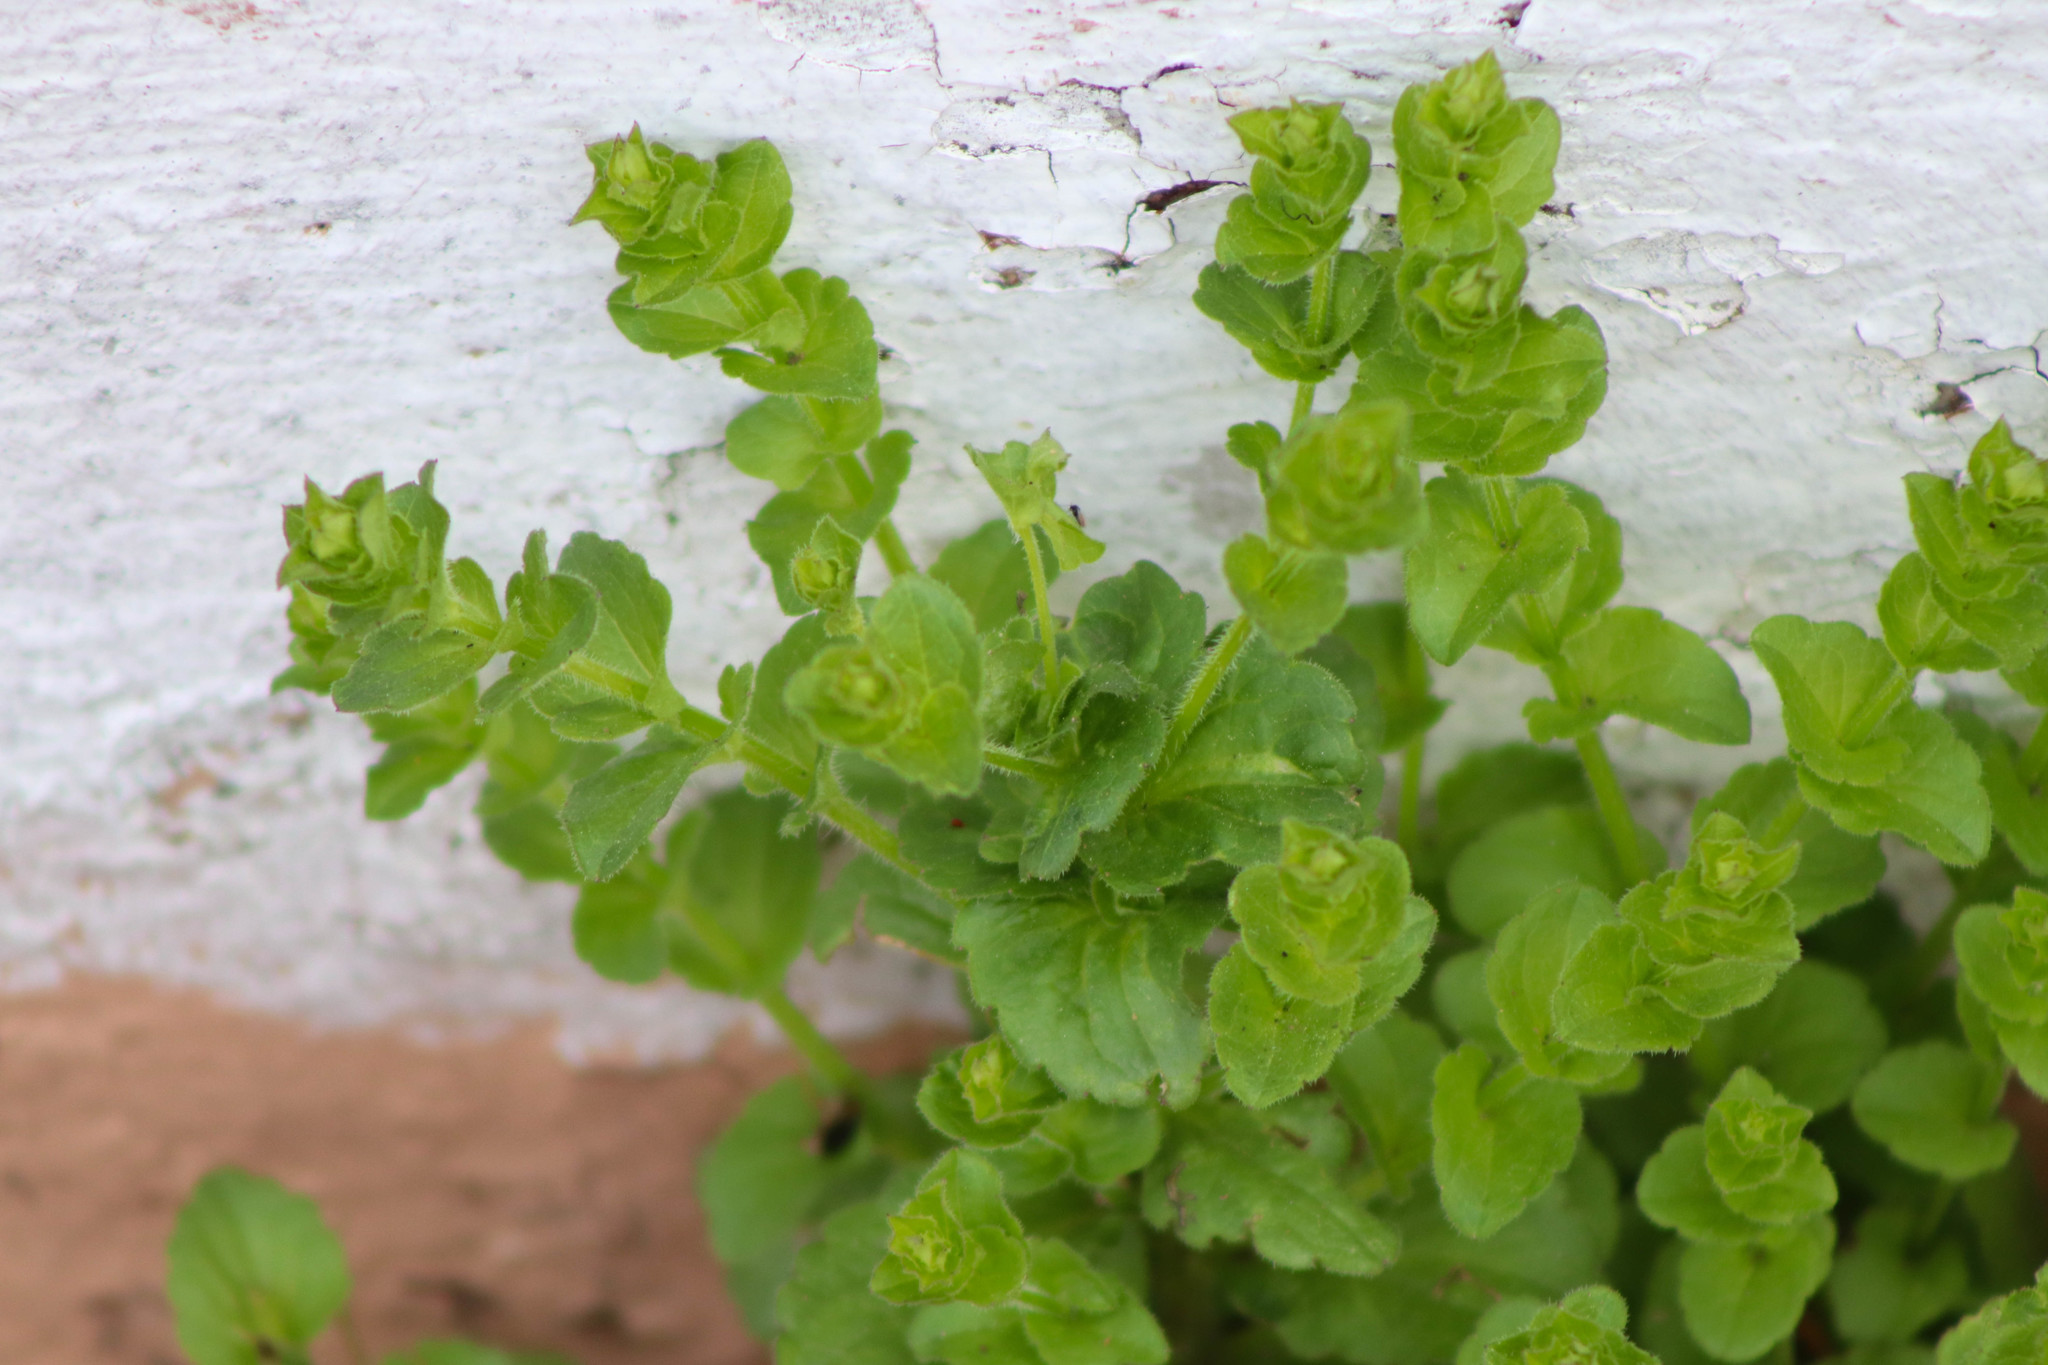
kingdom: Plantae
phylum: Tracheophyta
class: Magnoliopsida
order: Asterales
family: Campanulaceae
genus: Triodanis
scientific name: Triodanis perfoliata
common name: Clasping venus' looking-glass
